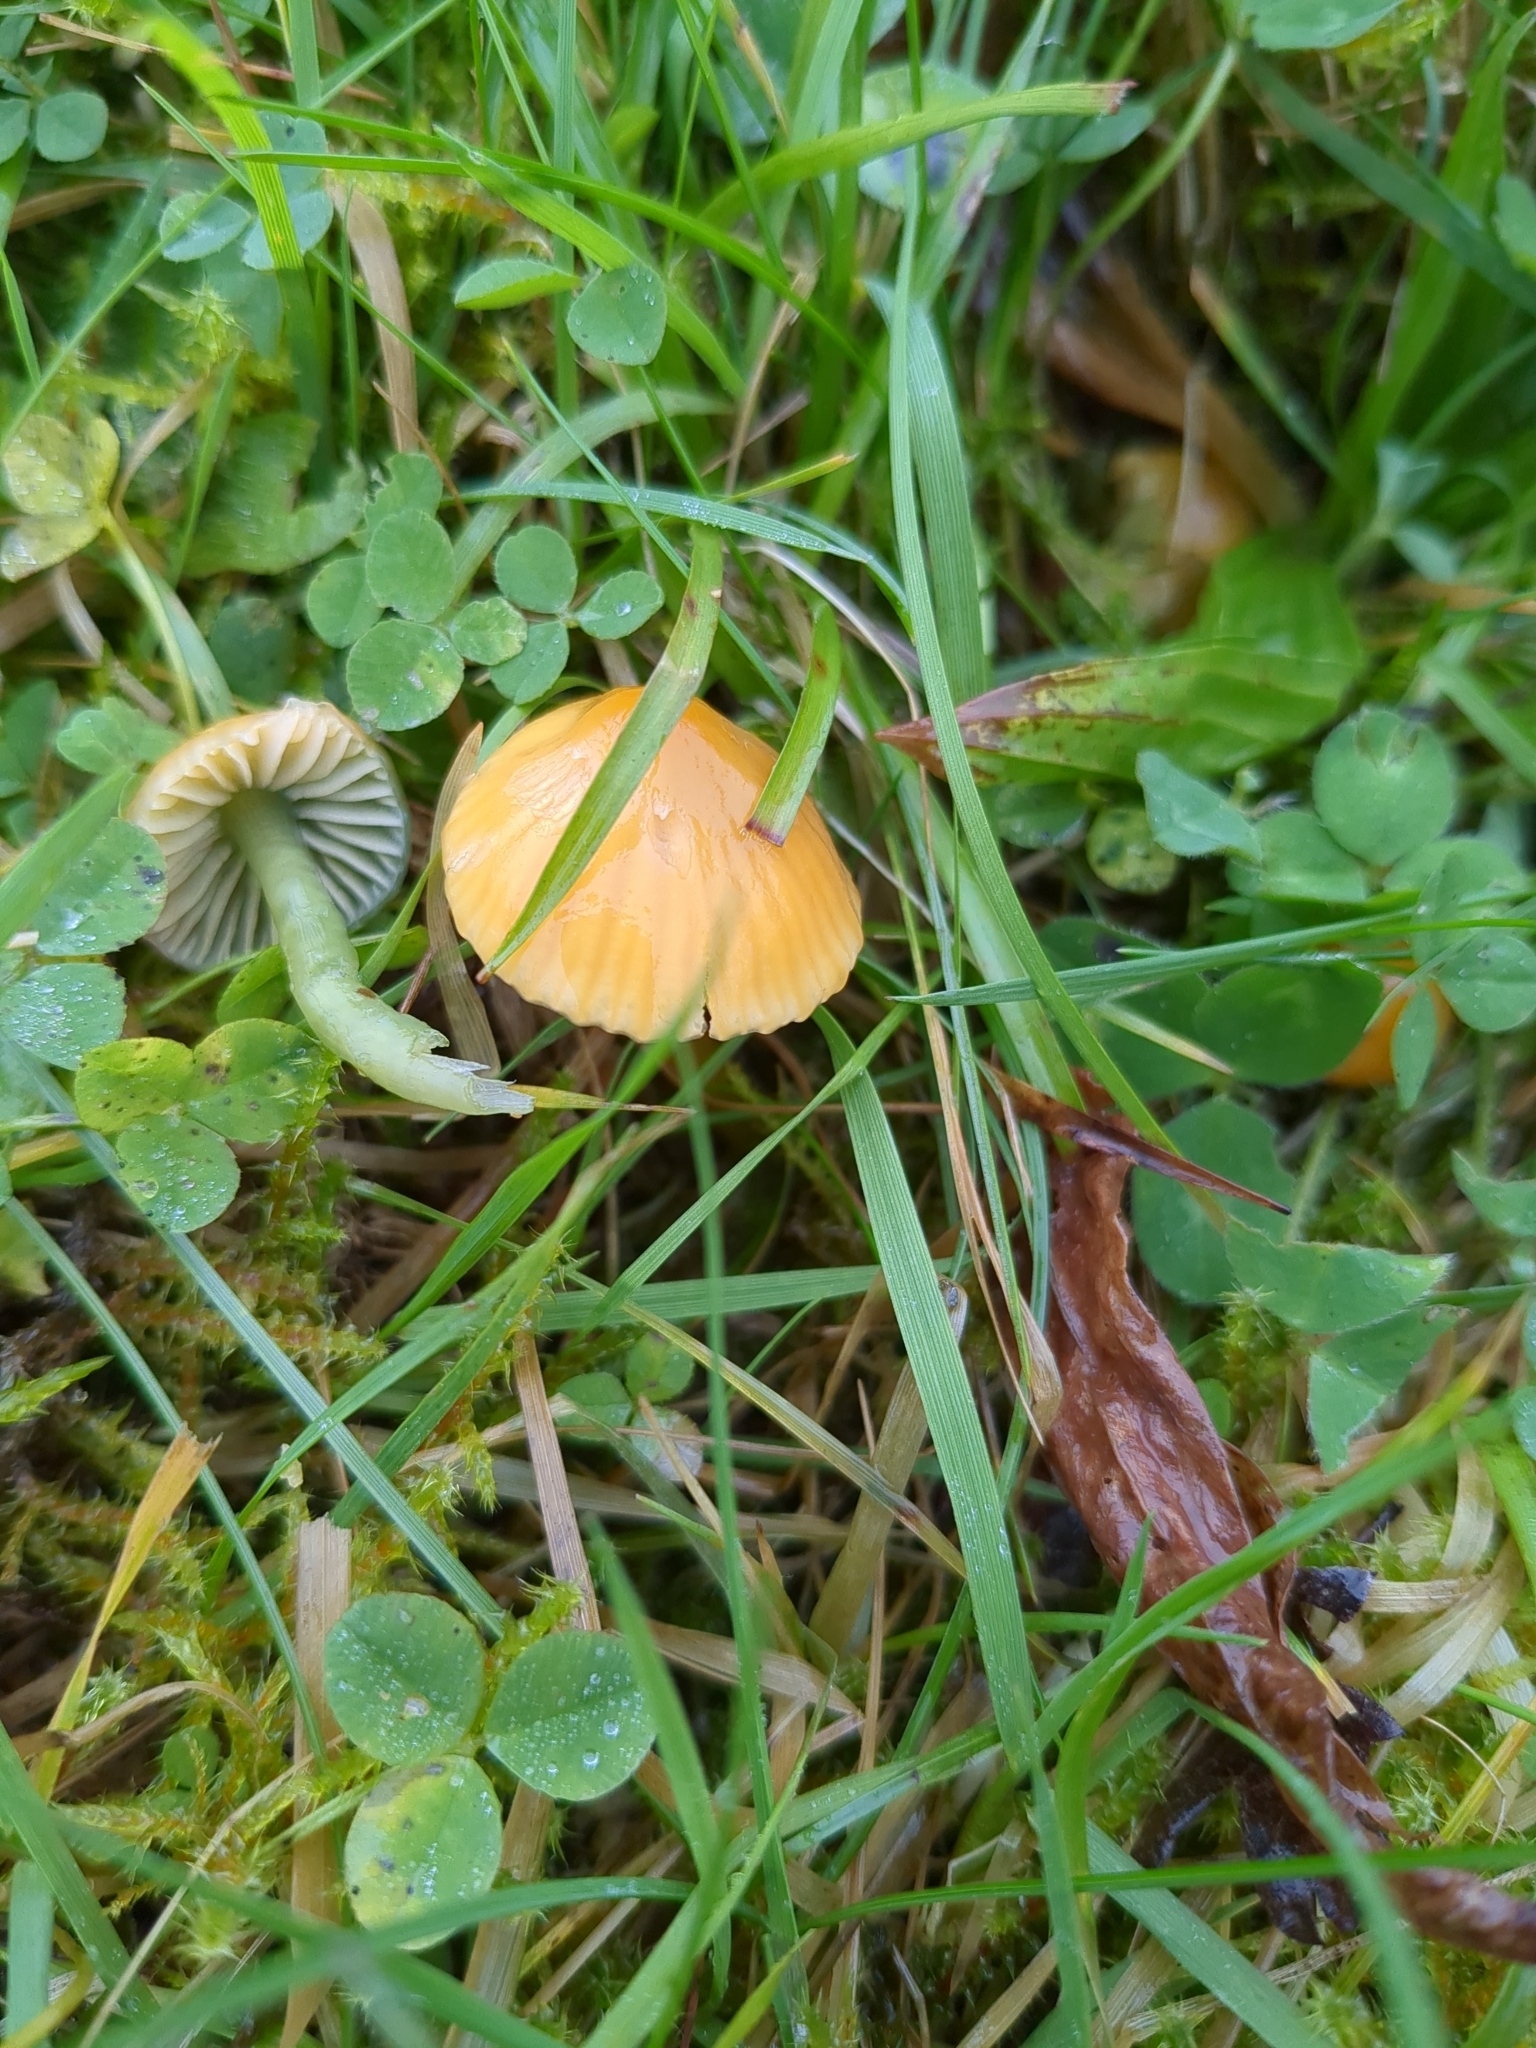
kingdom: Fungi
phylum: Basidiomycota
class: Agaricomycetes
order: Agaricales
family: Hygrophoraceae
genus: Gliophorus
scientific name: Gliophorus psittacinus
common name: Parrot wax-cap
